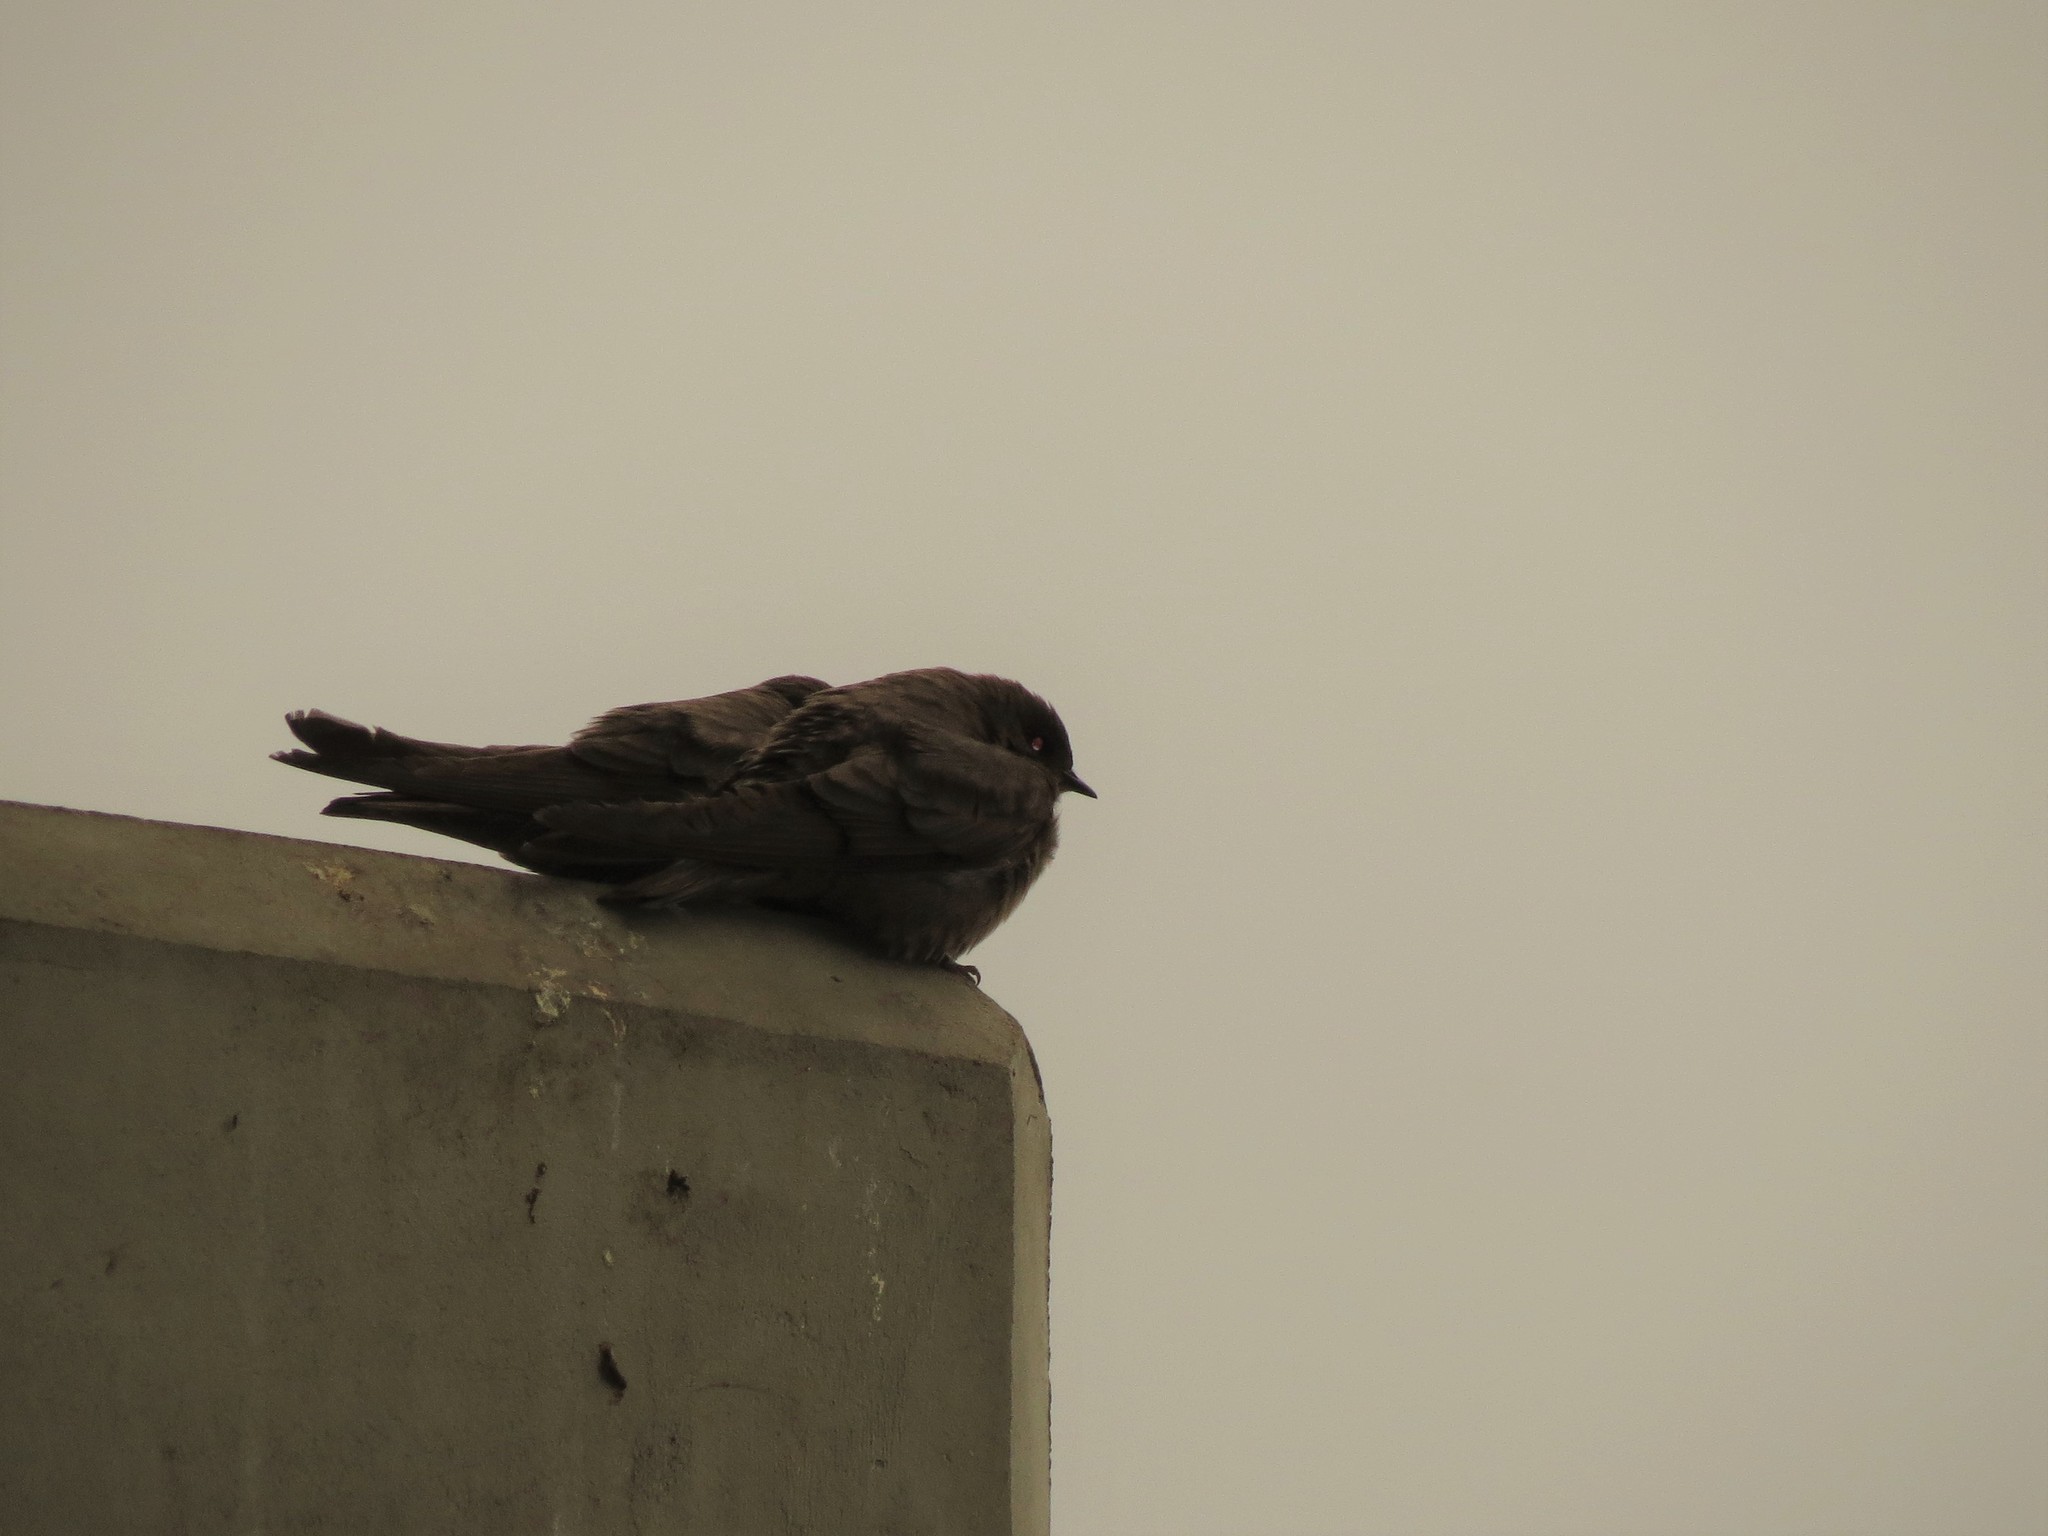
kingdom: Animalia
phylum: Chordata
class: Aves
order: Passeriformes
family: Hirundinidae
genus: Ptyonoprogne
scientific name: Ptyonoprogne fuligula
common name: Rock martin
